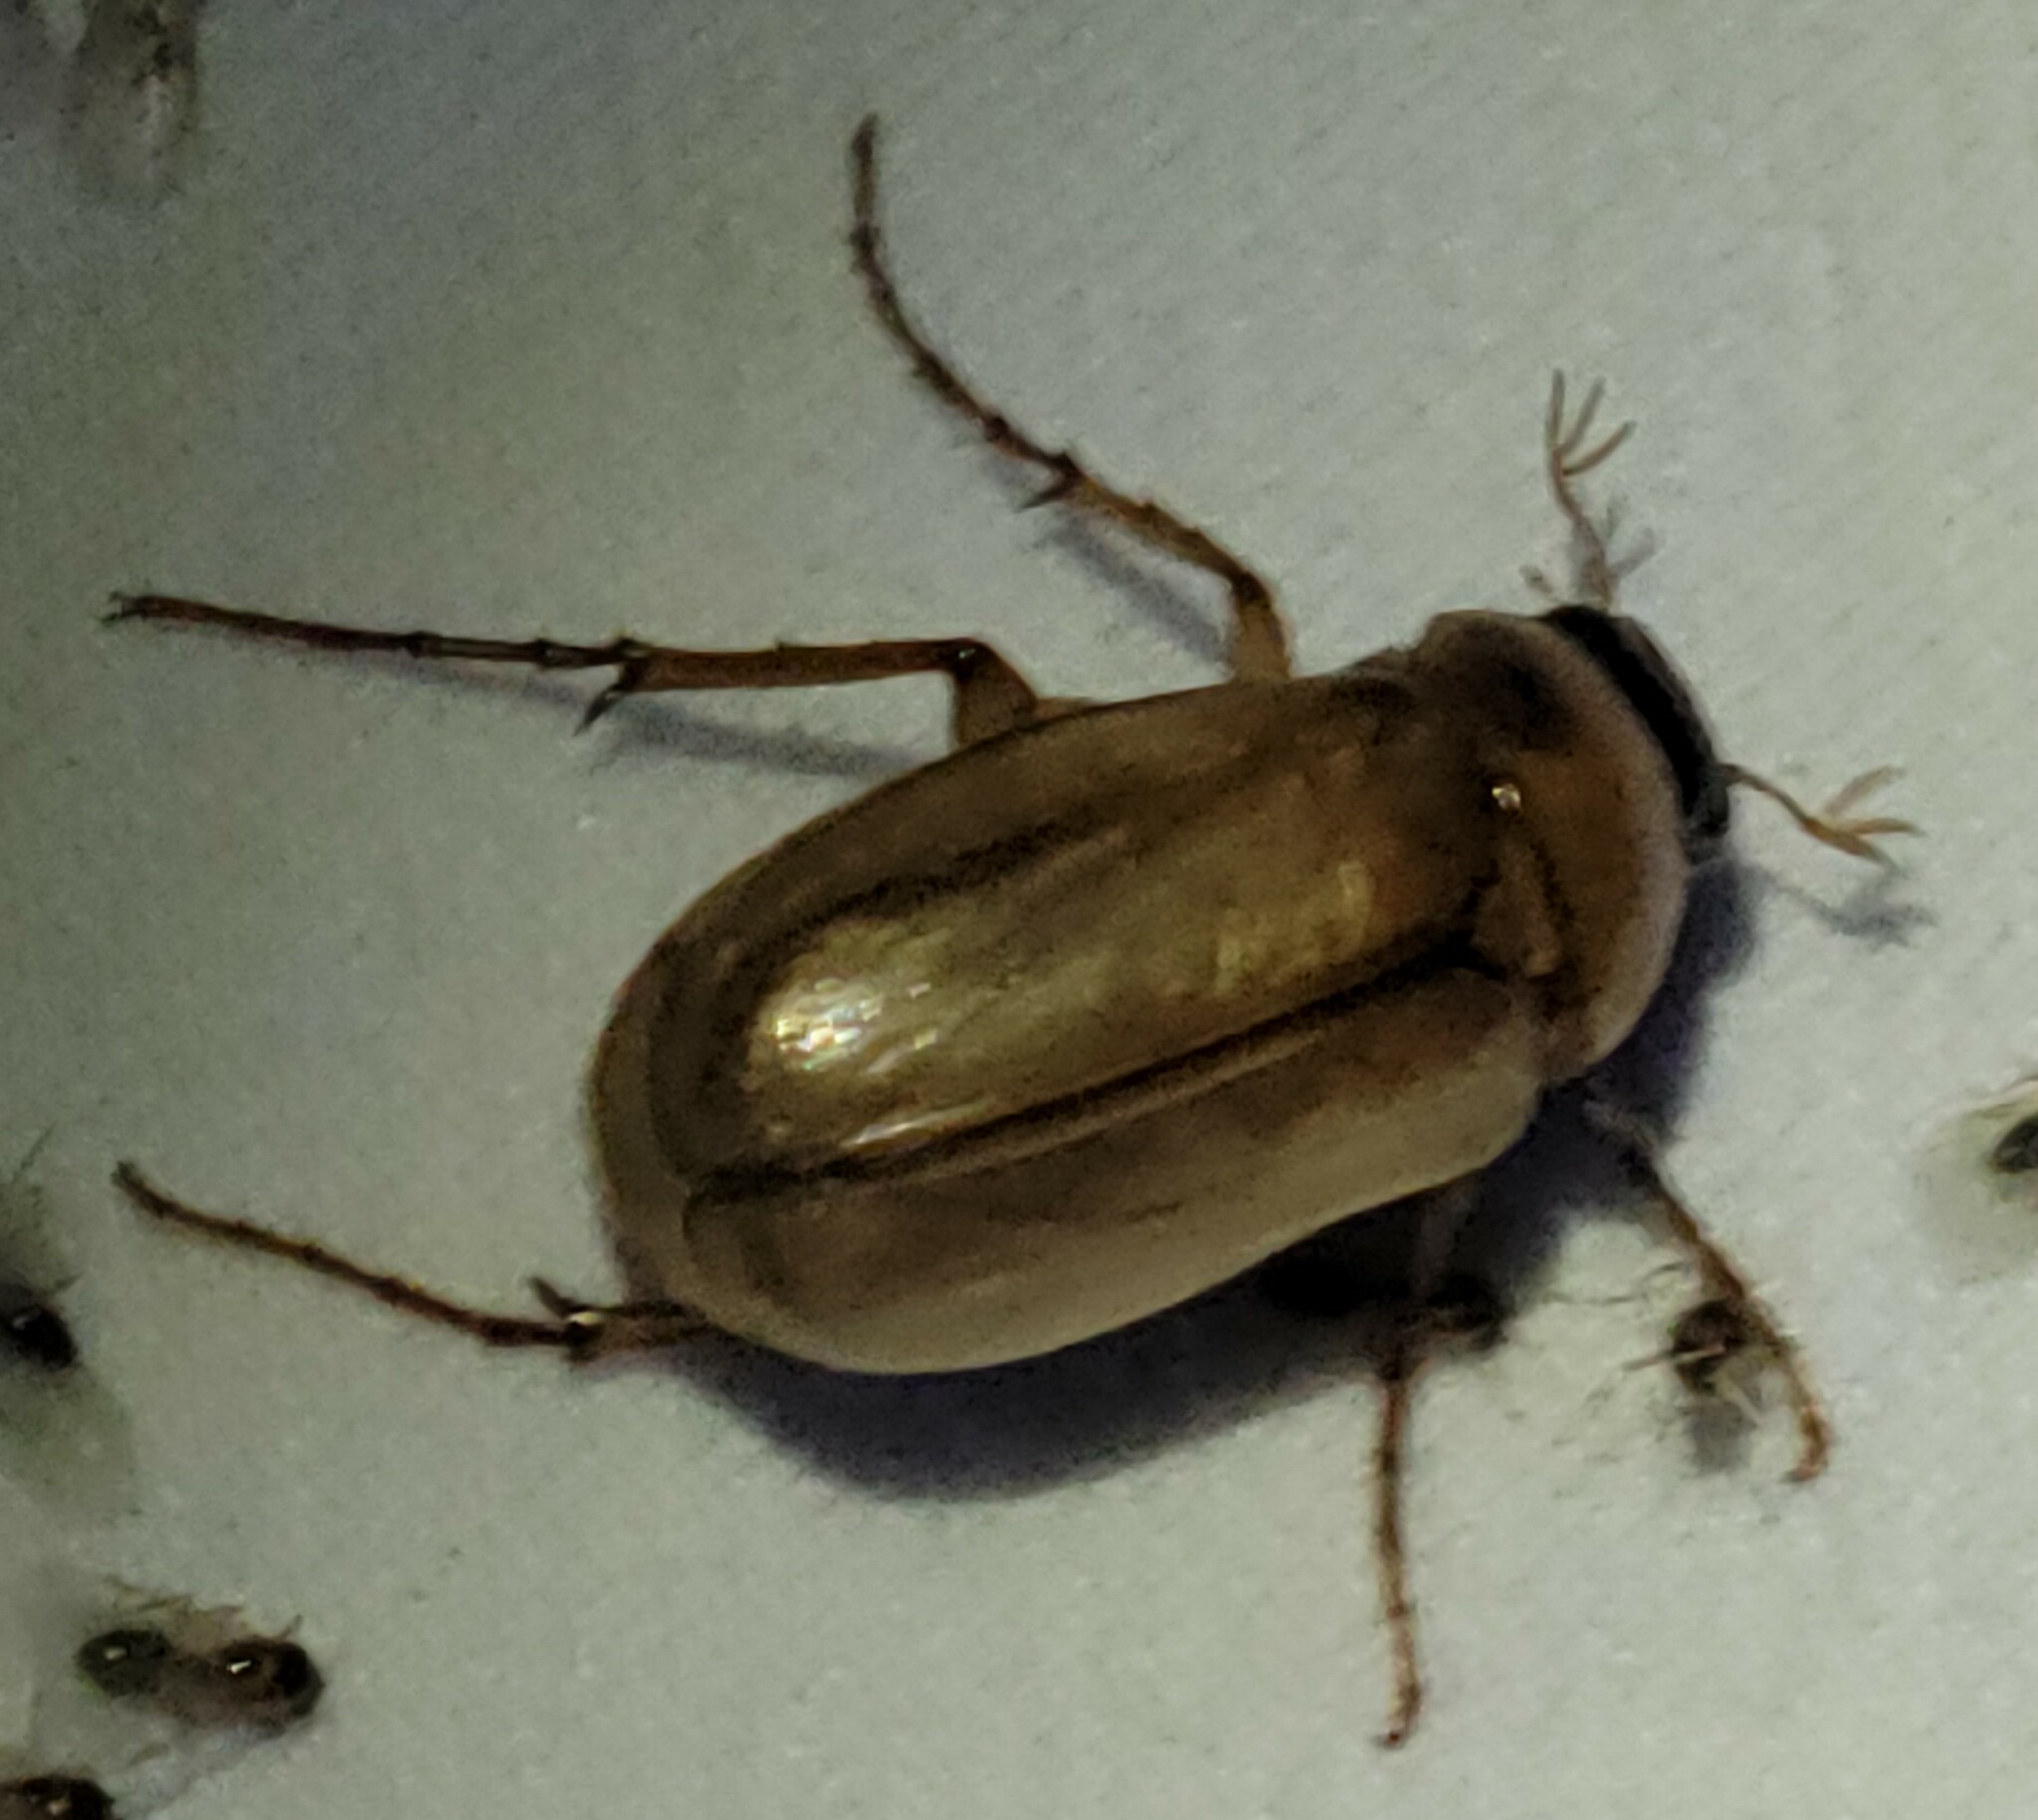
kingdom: Animalia
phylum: Arthropoda
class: Insecta
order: Coleoptera
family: Scarabaeidae
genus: Chlaenobia
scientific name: Chlaenobia vexata
